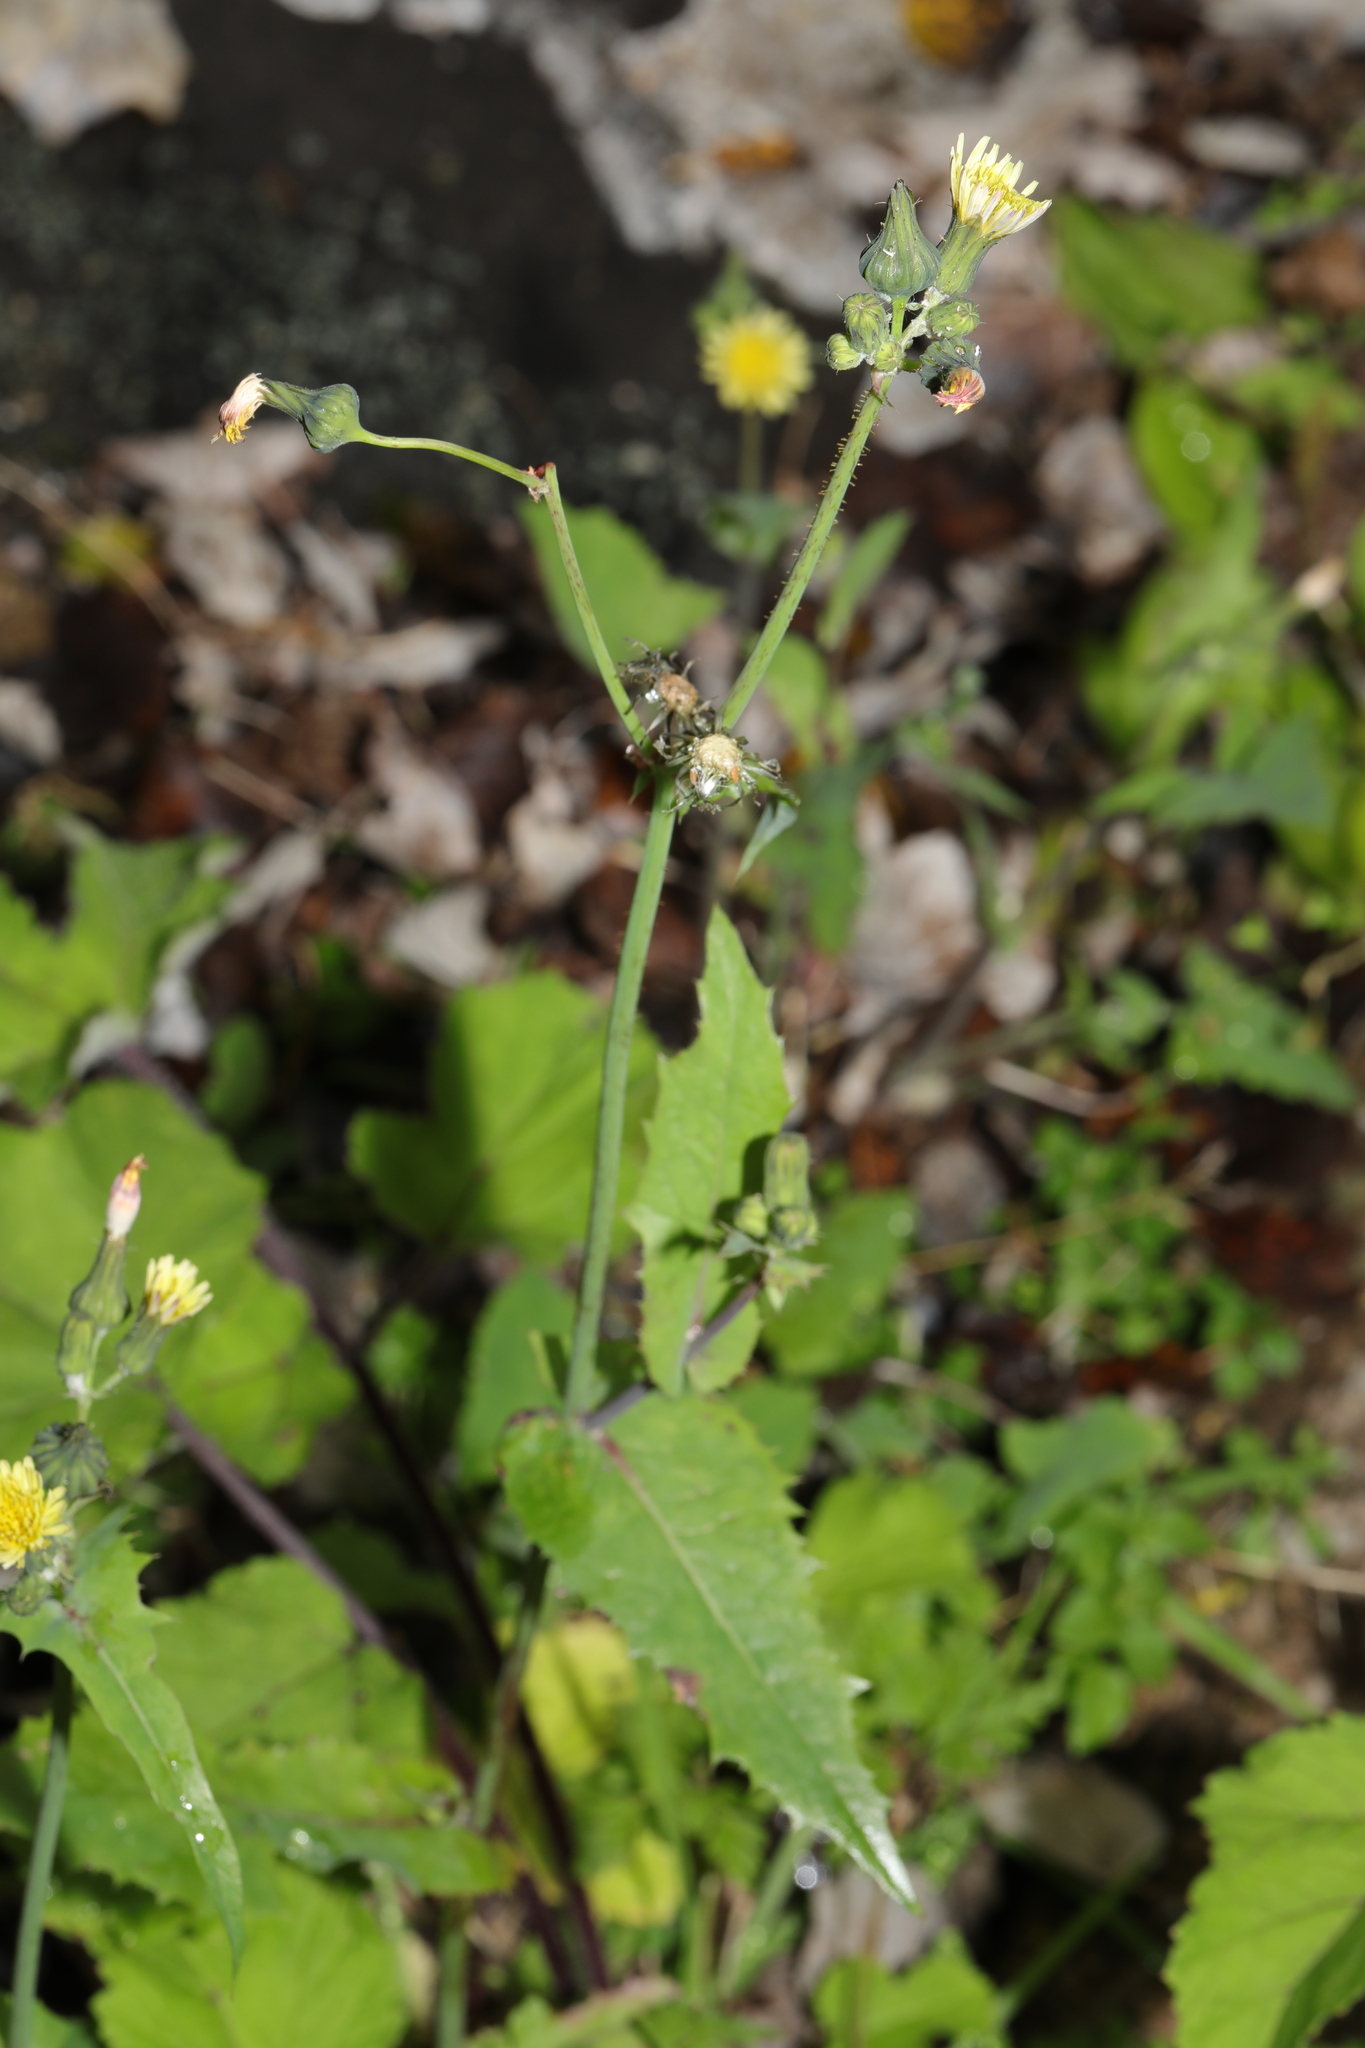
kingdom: Plantae
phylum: Tracheophyta
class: Magnoliopsida
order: Asterales
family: Asteraceae
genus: Sonchus
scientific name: Sonchus oleraceus
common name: Common sowthistle
